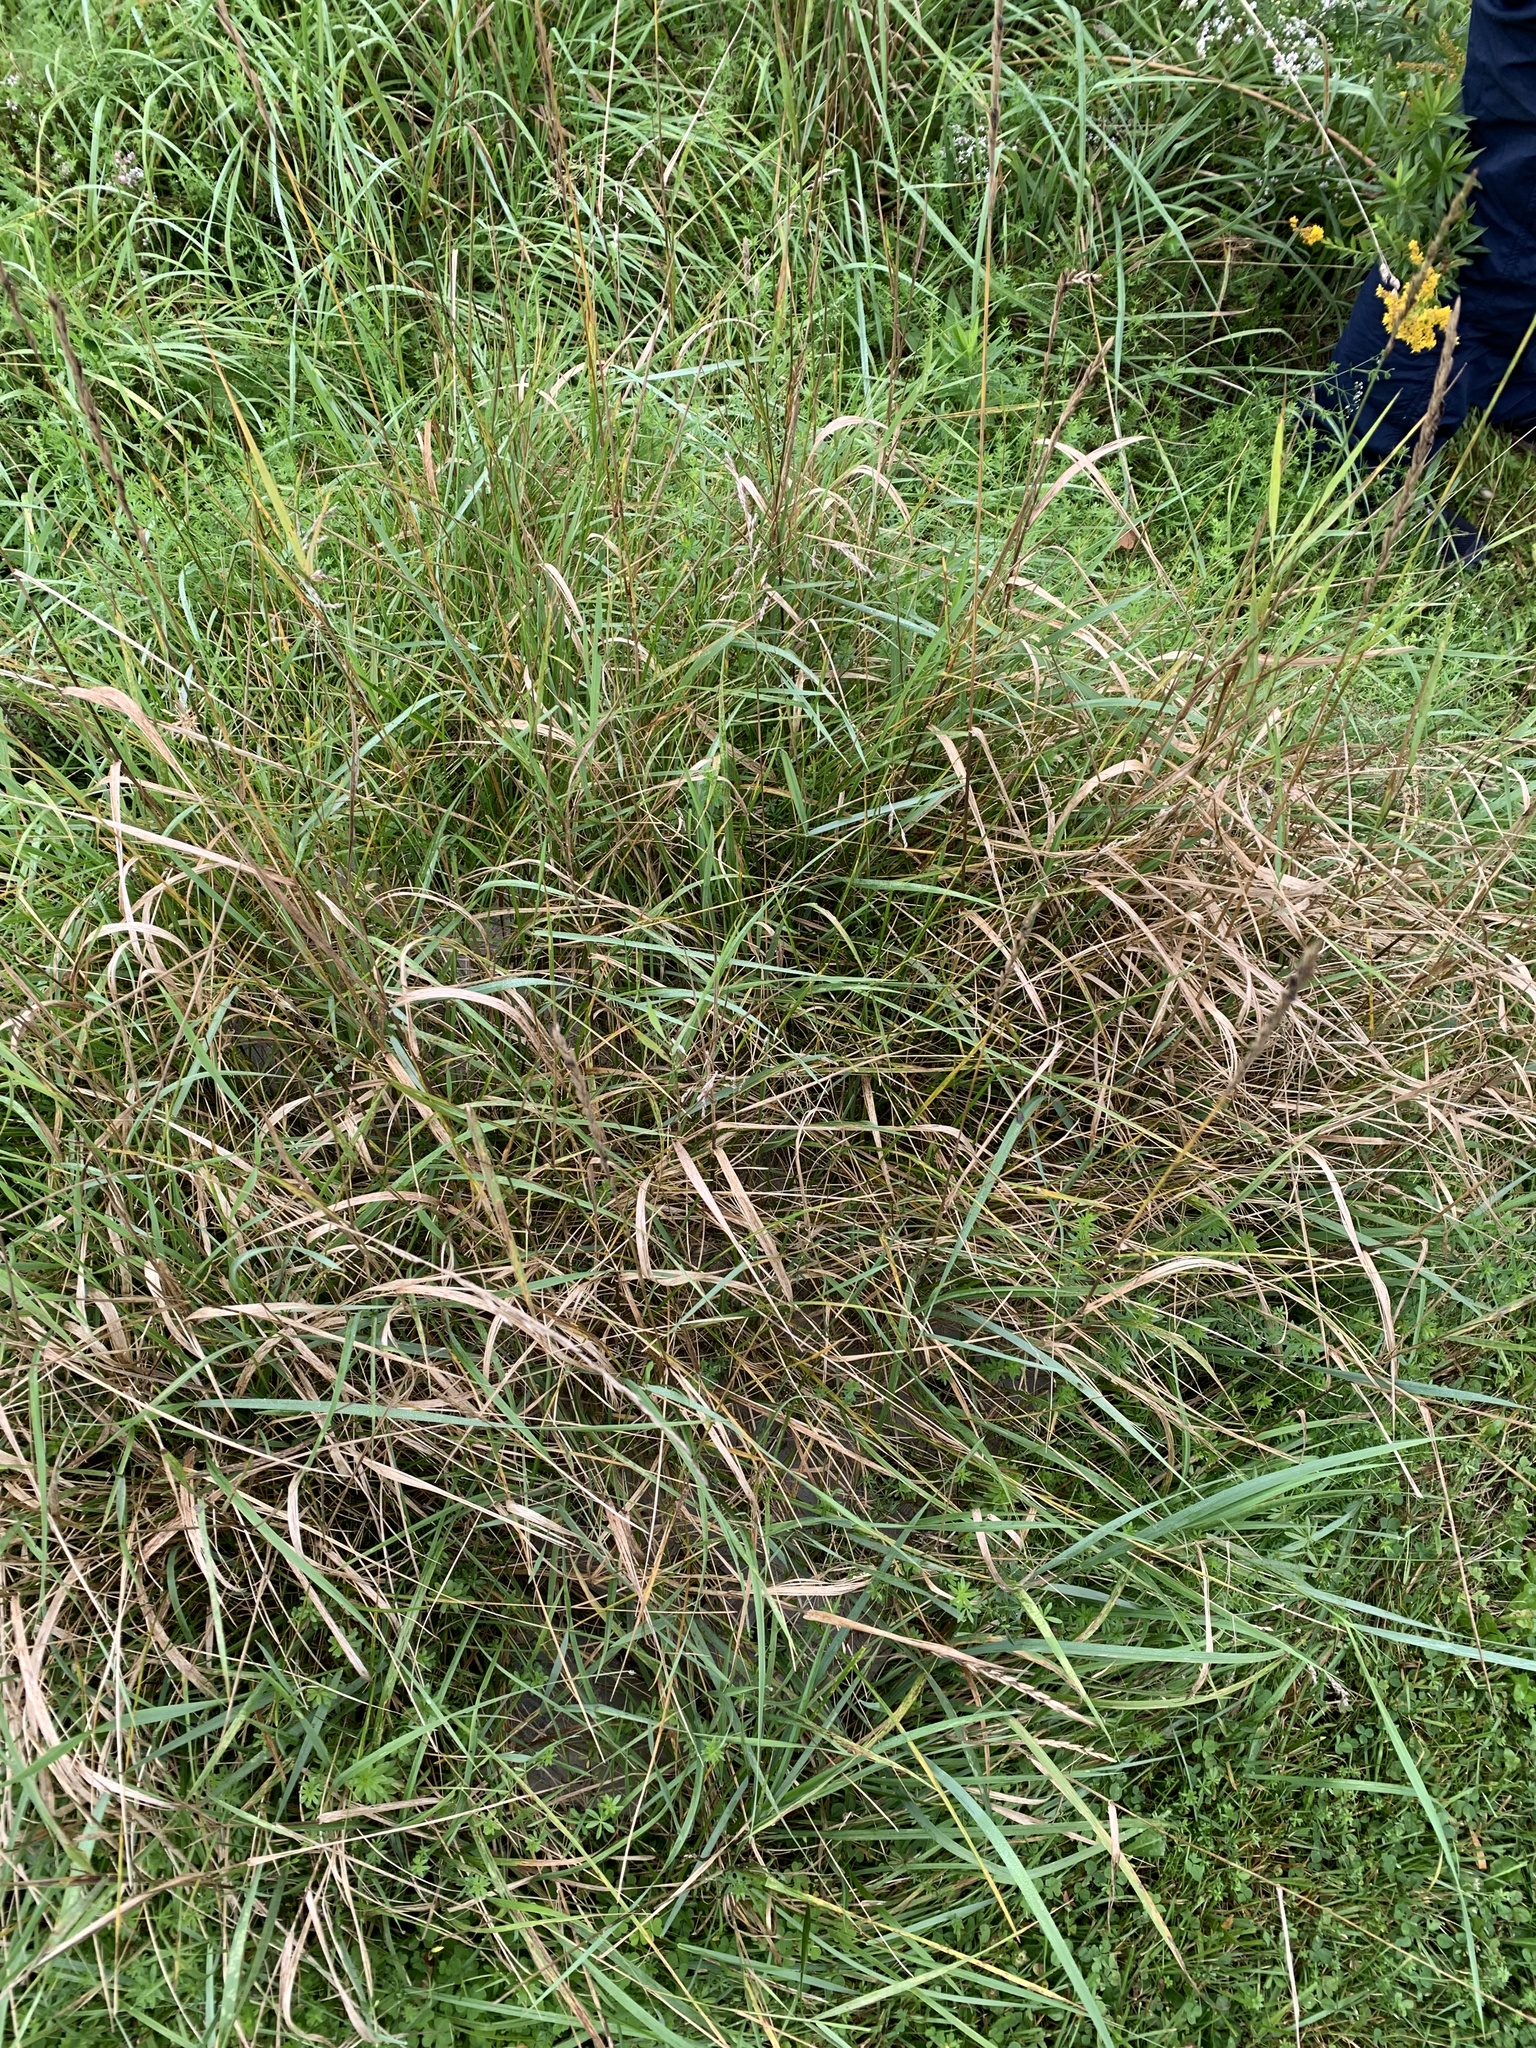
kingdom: Plantae
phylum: Tracheophyta
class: Liliopsida
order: Poales
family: Poaceae
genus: Elymus
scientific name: Elymus repens
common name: Quackgrass
